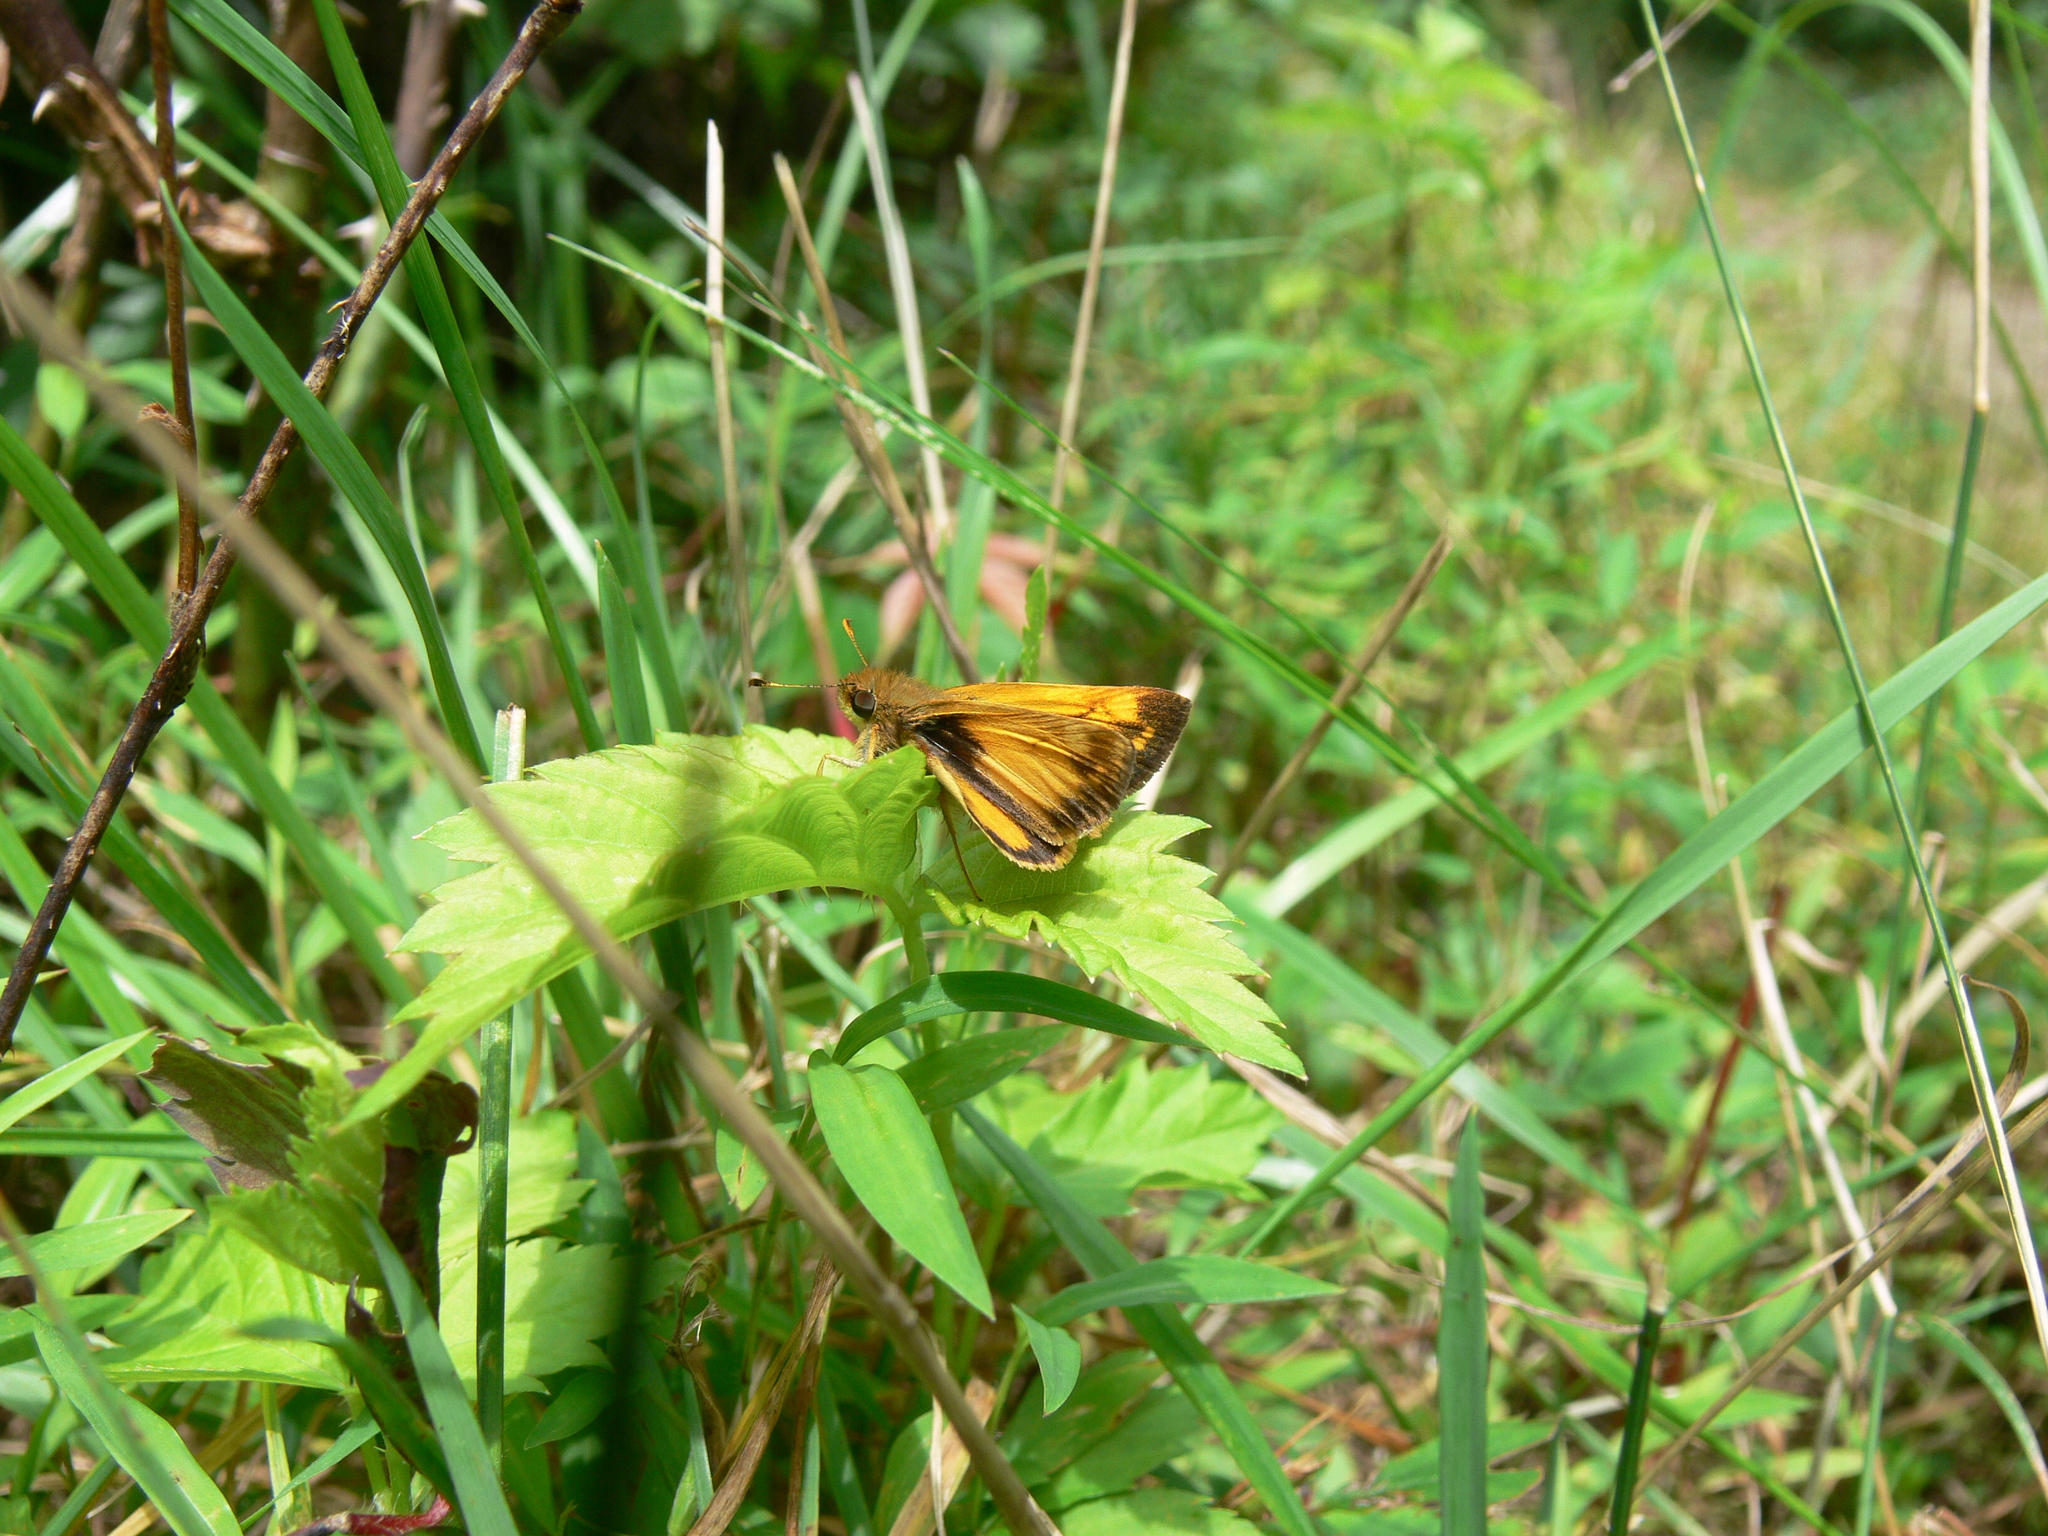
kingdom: Animalia
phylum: Arthropoda
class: Insecta
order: Lepidoptera
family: Hesperiidae
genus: Lon
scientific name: Lon zabulon
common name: Zabulon skipper
